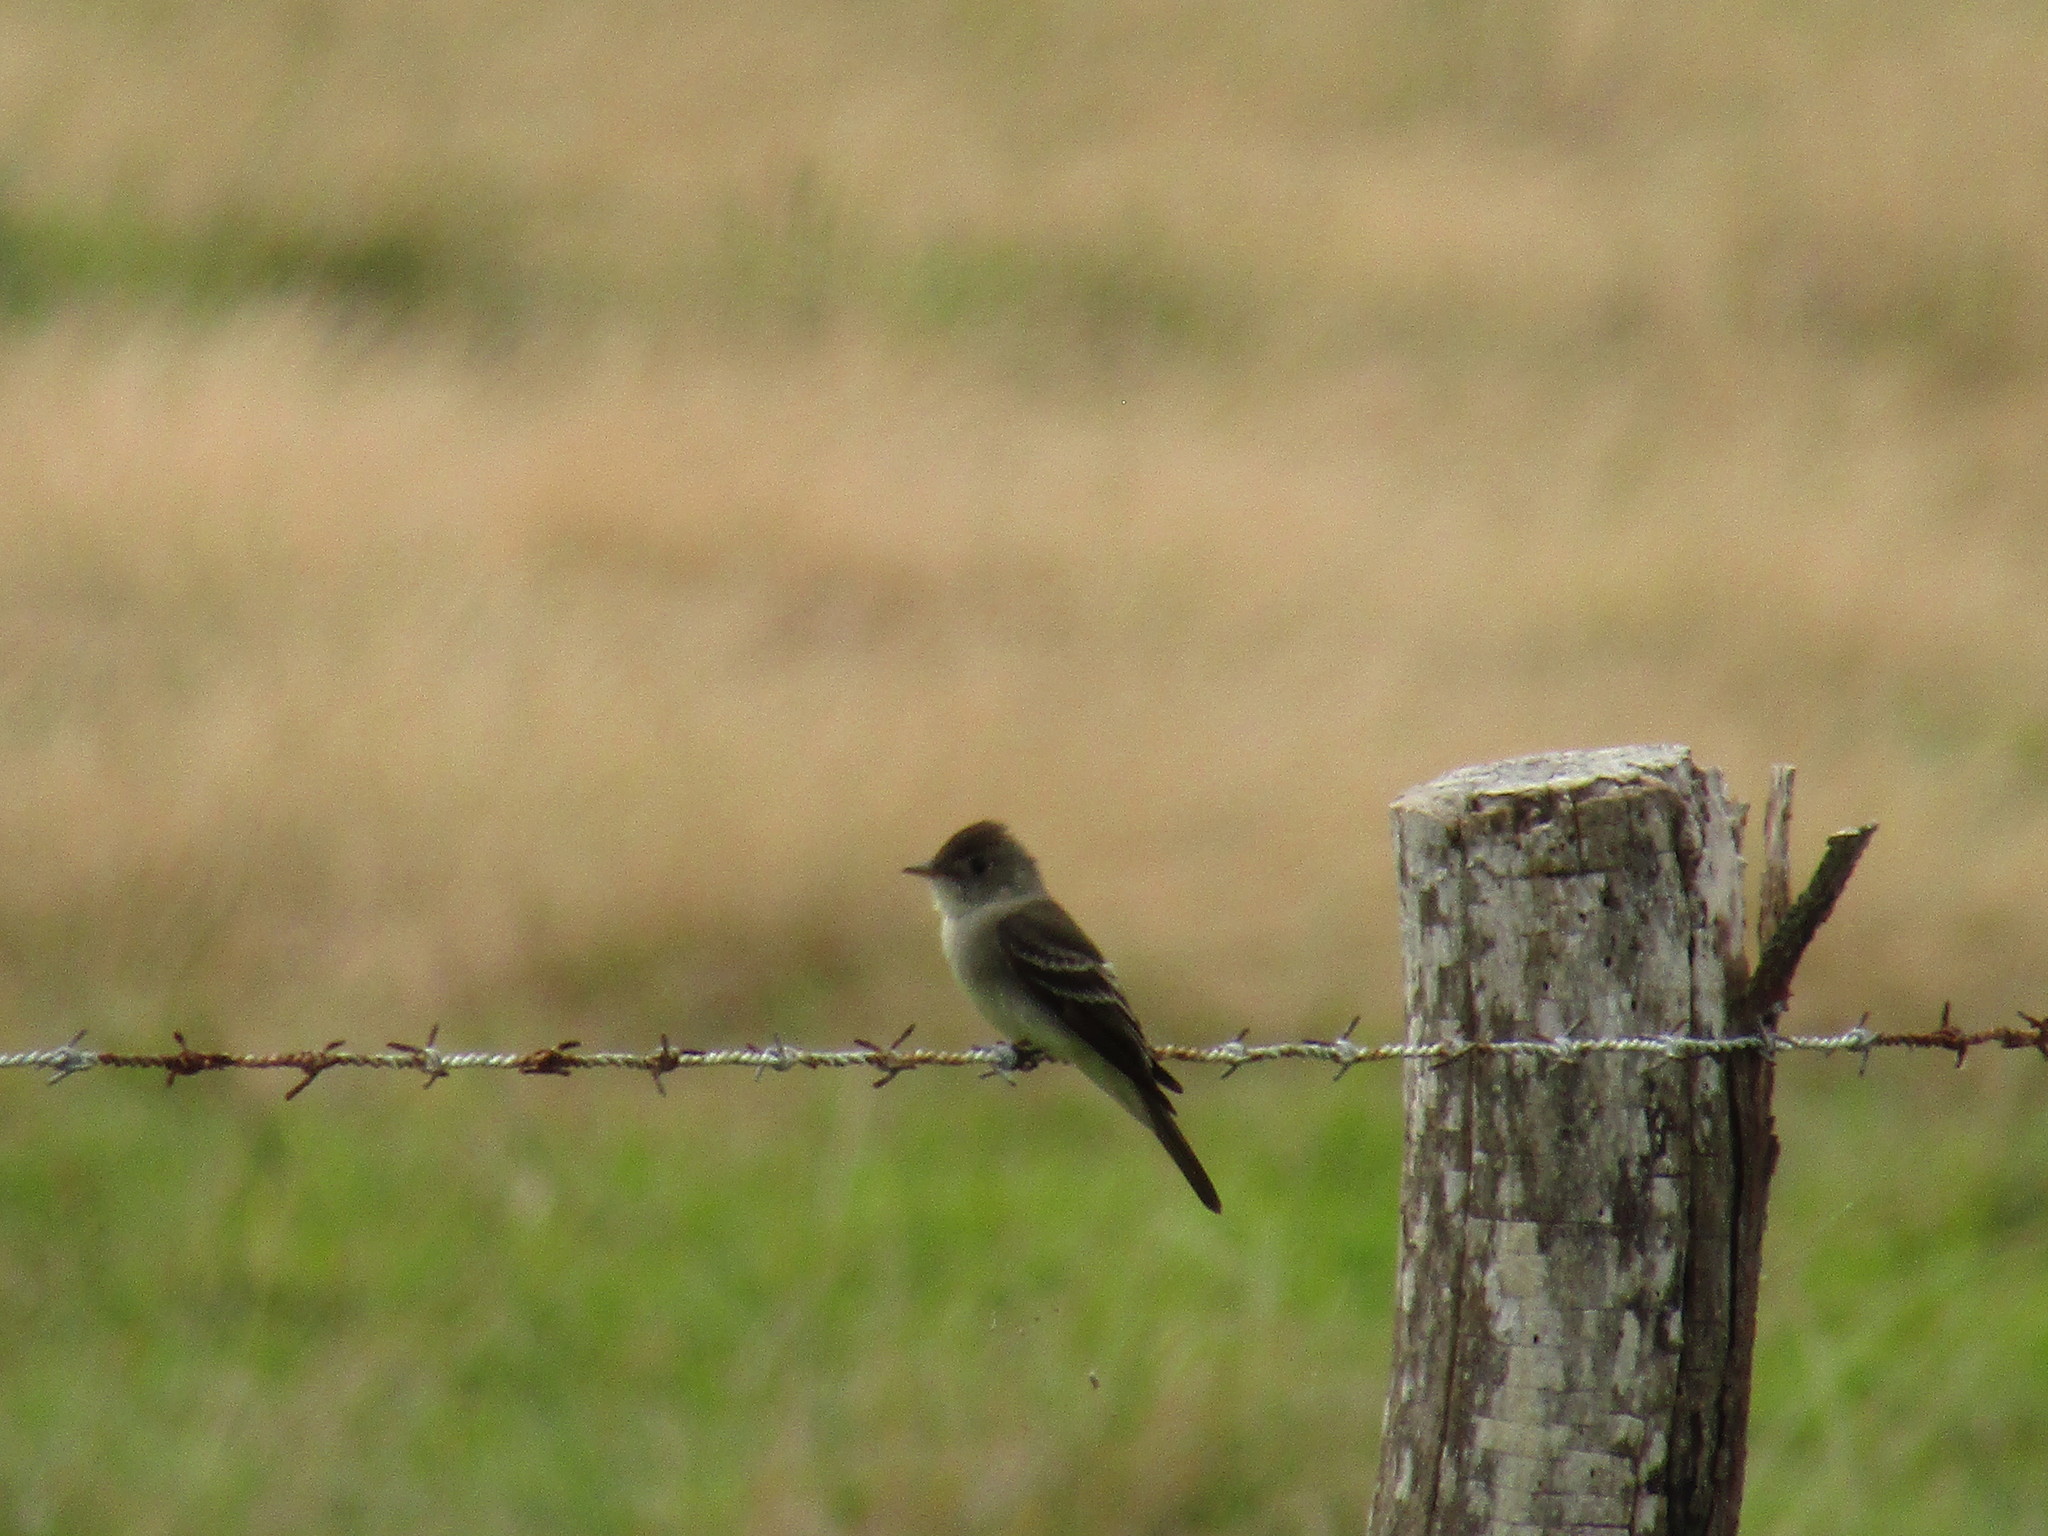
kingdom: Animalia
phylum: Chordata
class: Aves
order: Passeriformes
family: Tyrannidae
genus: Contopus
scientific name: Contopus virens
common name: Eastern wood-pewee
